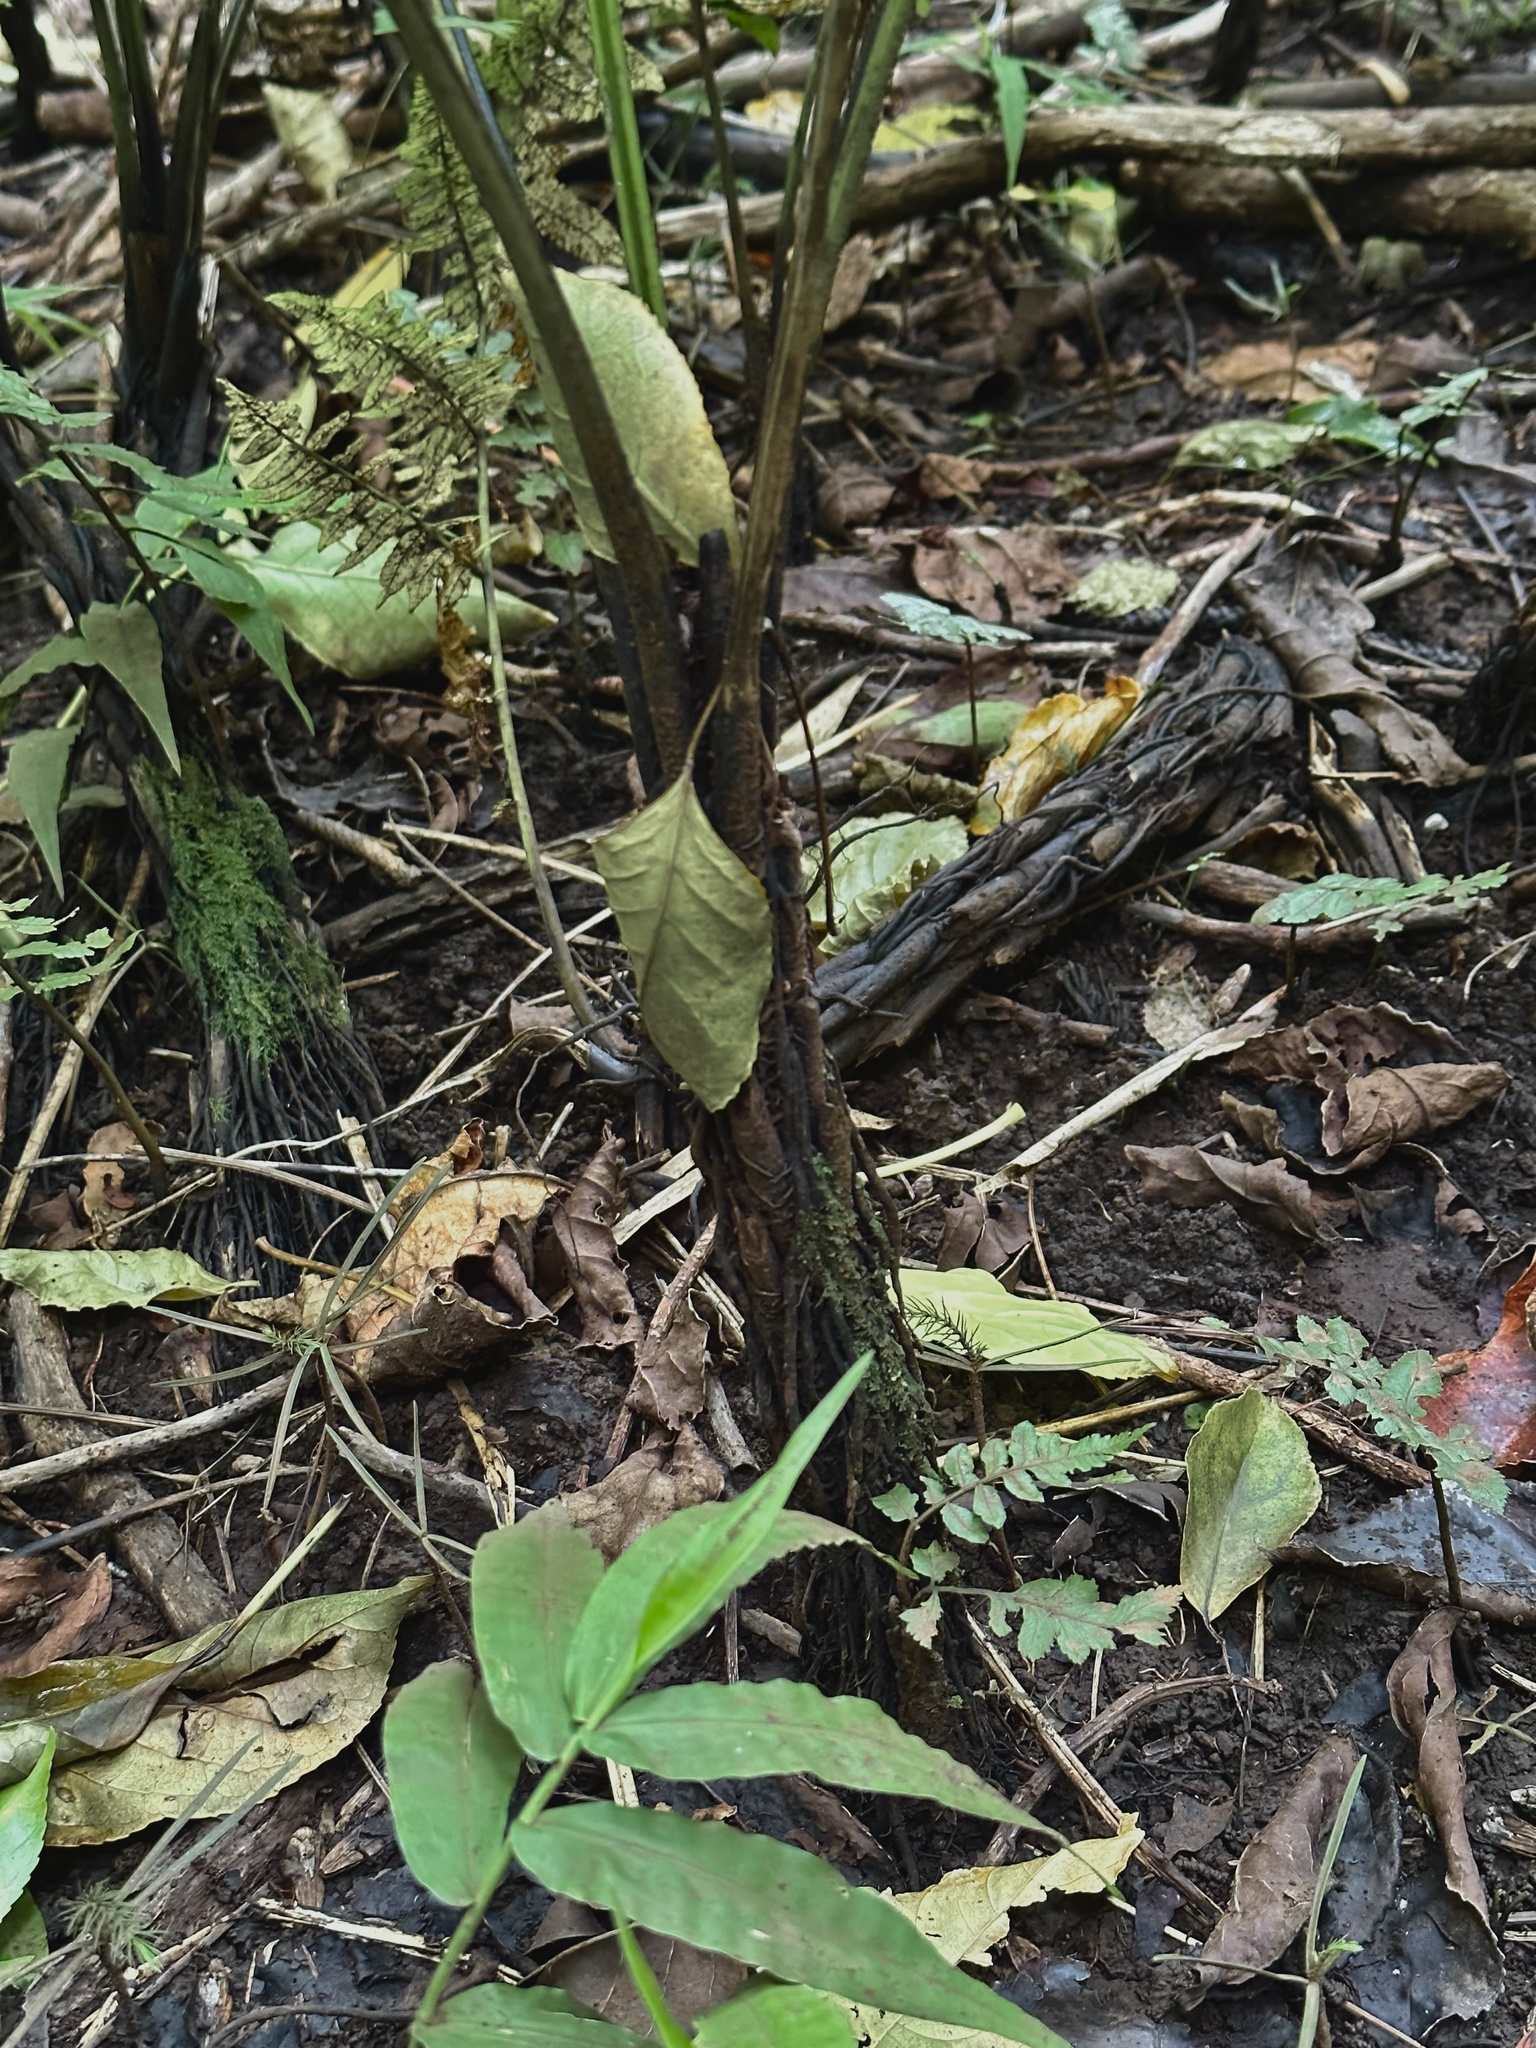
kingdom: Plantae
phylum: Tracheophyta
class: Polypodiopsida
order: Polypodiales
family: Athyriaceae
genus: Diplazium
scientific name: Diplazium esculentum
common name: Vegetable fern
